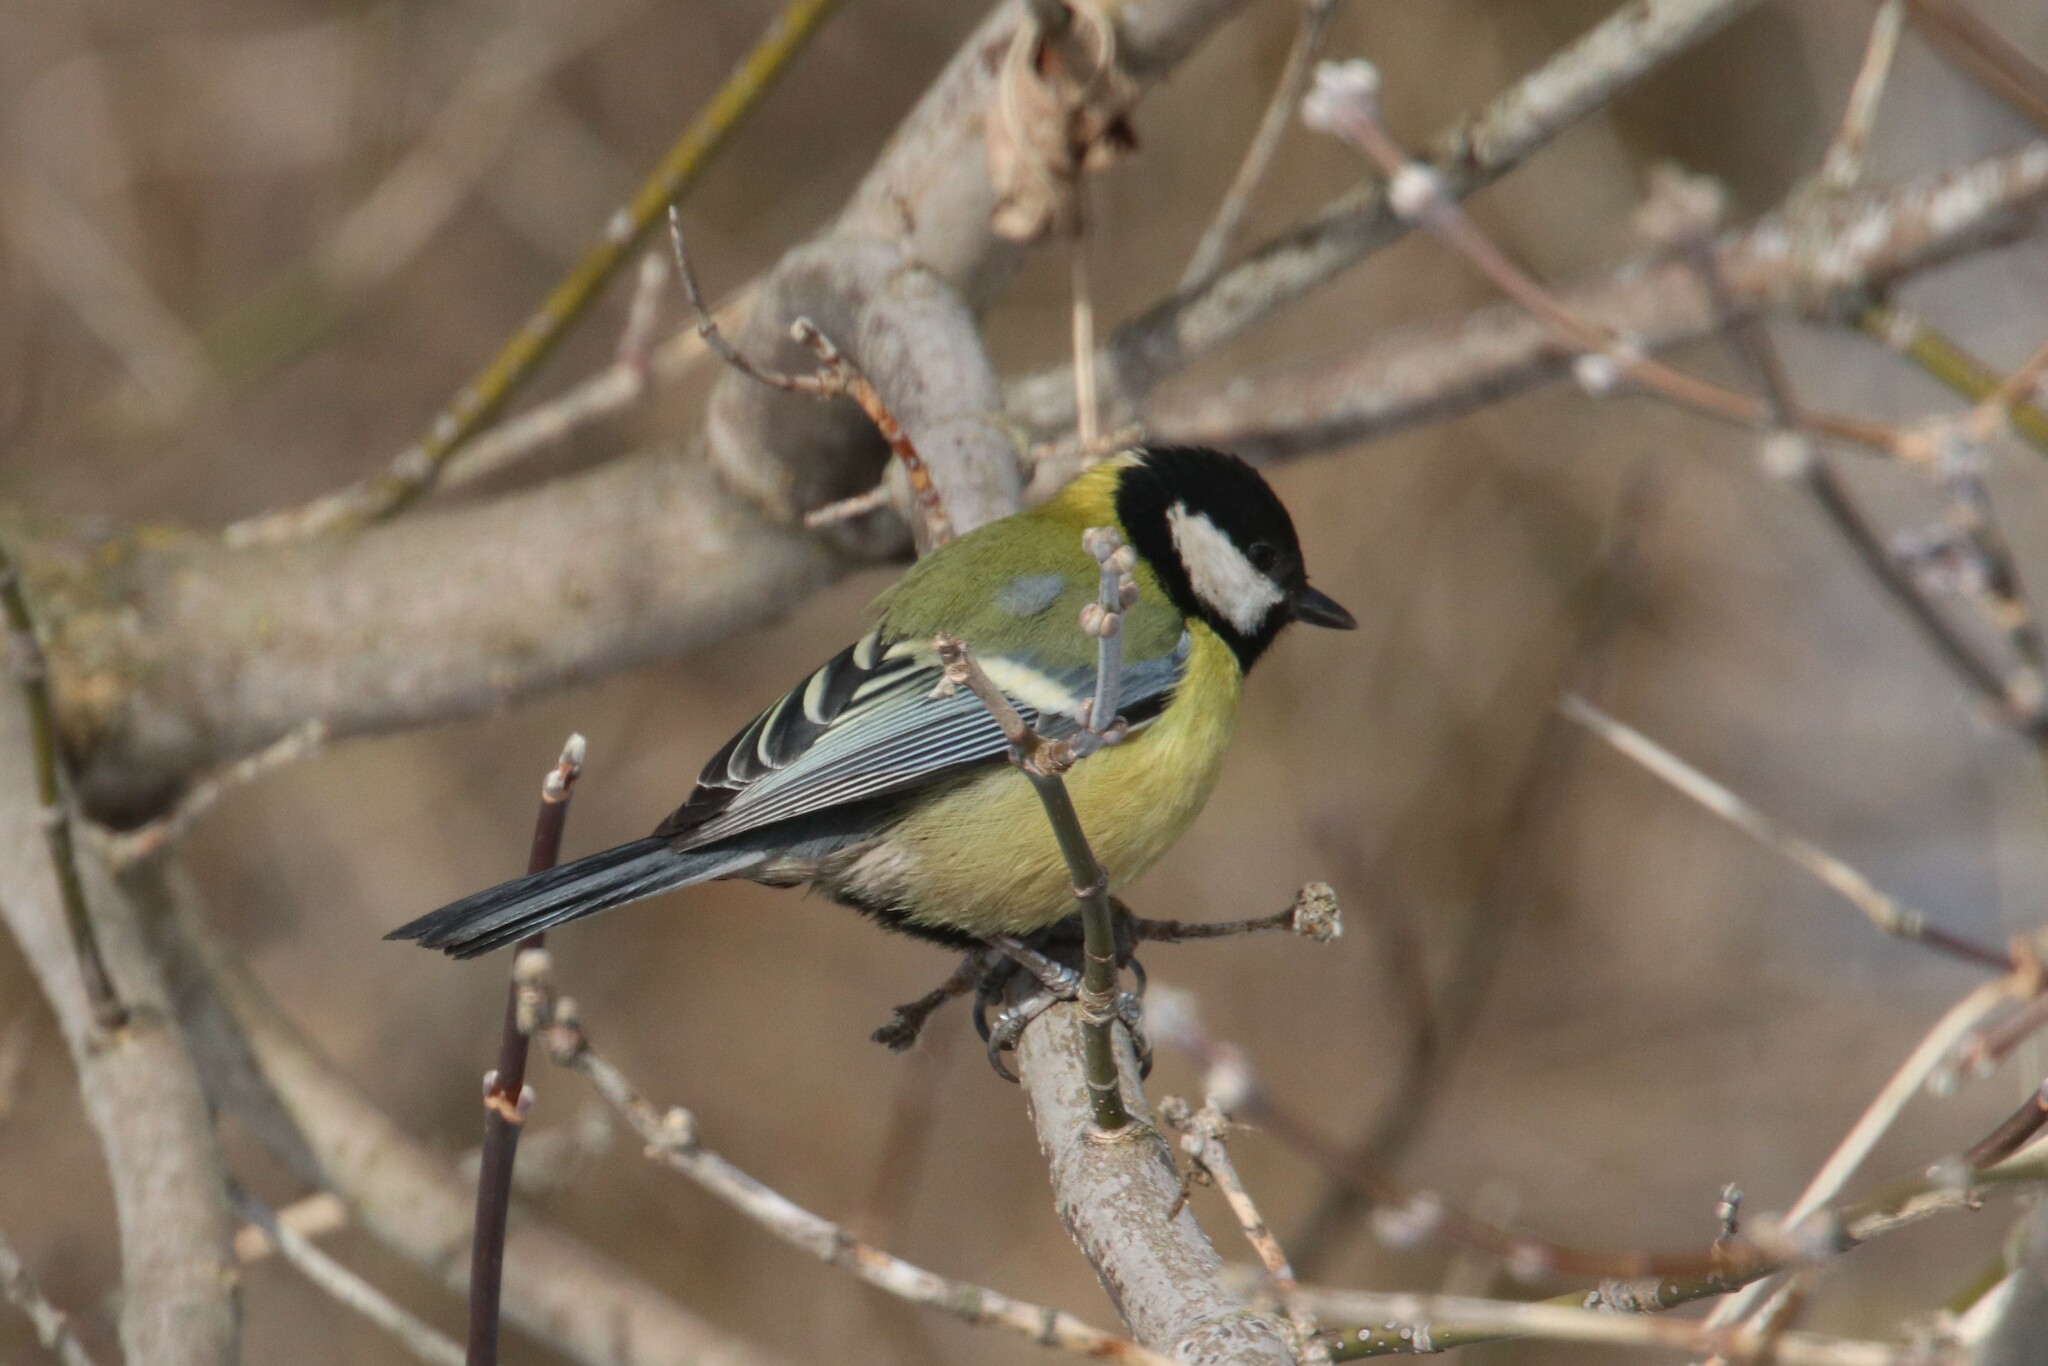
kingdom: Animalia
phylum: Chordata
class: Aves
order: Passeriformes
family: Paridae
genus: Parus
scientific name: Parus major
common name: Great tit
